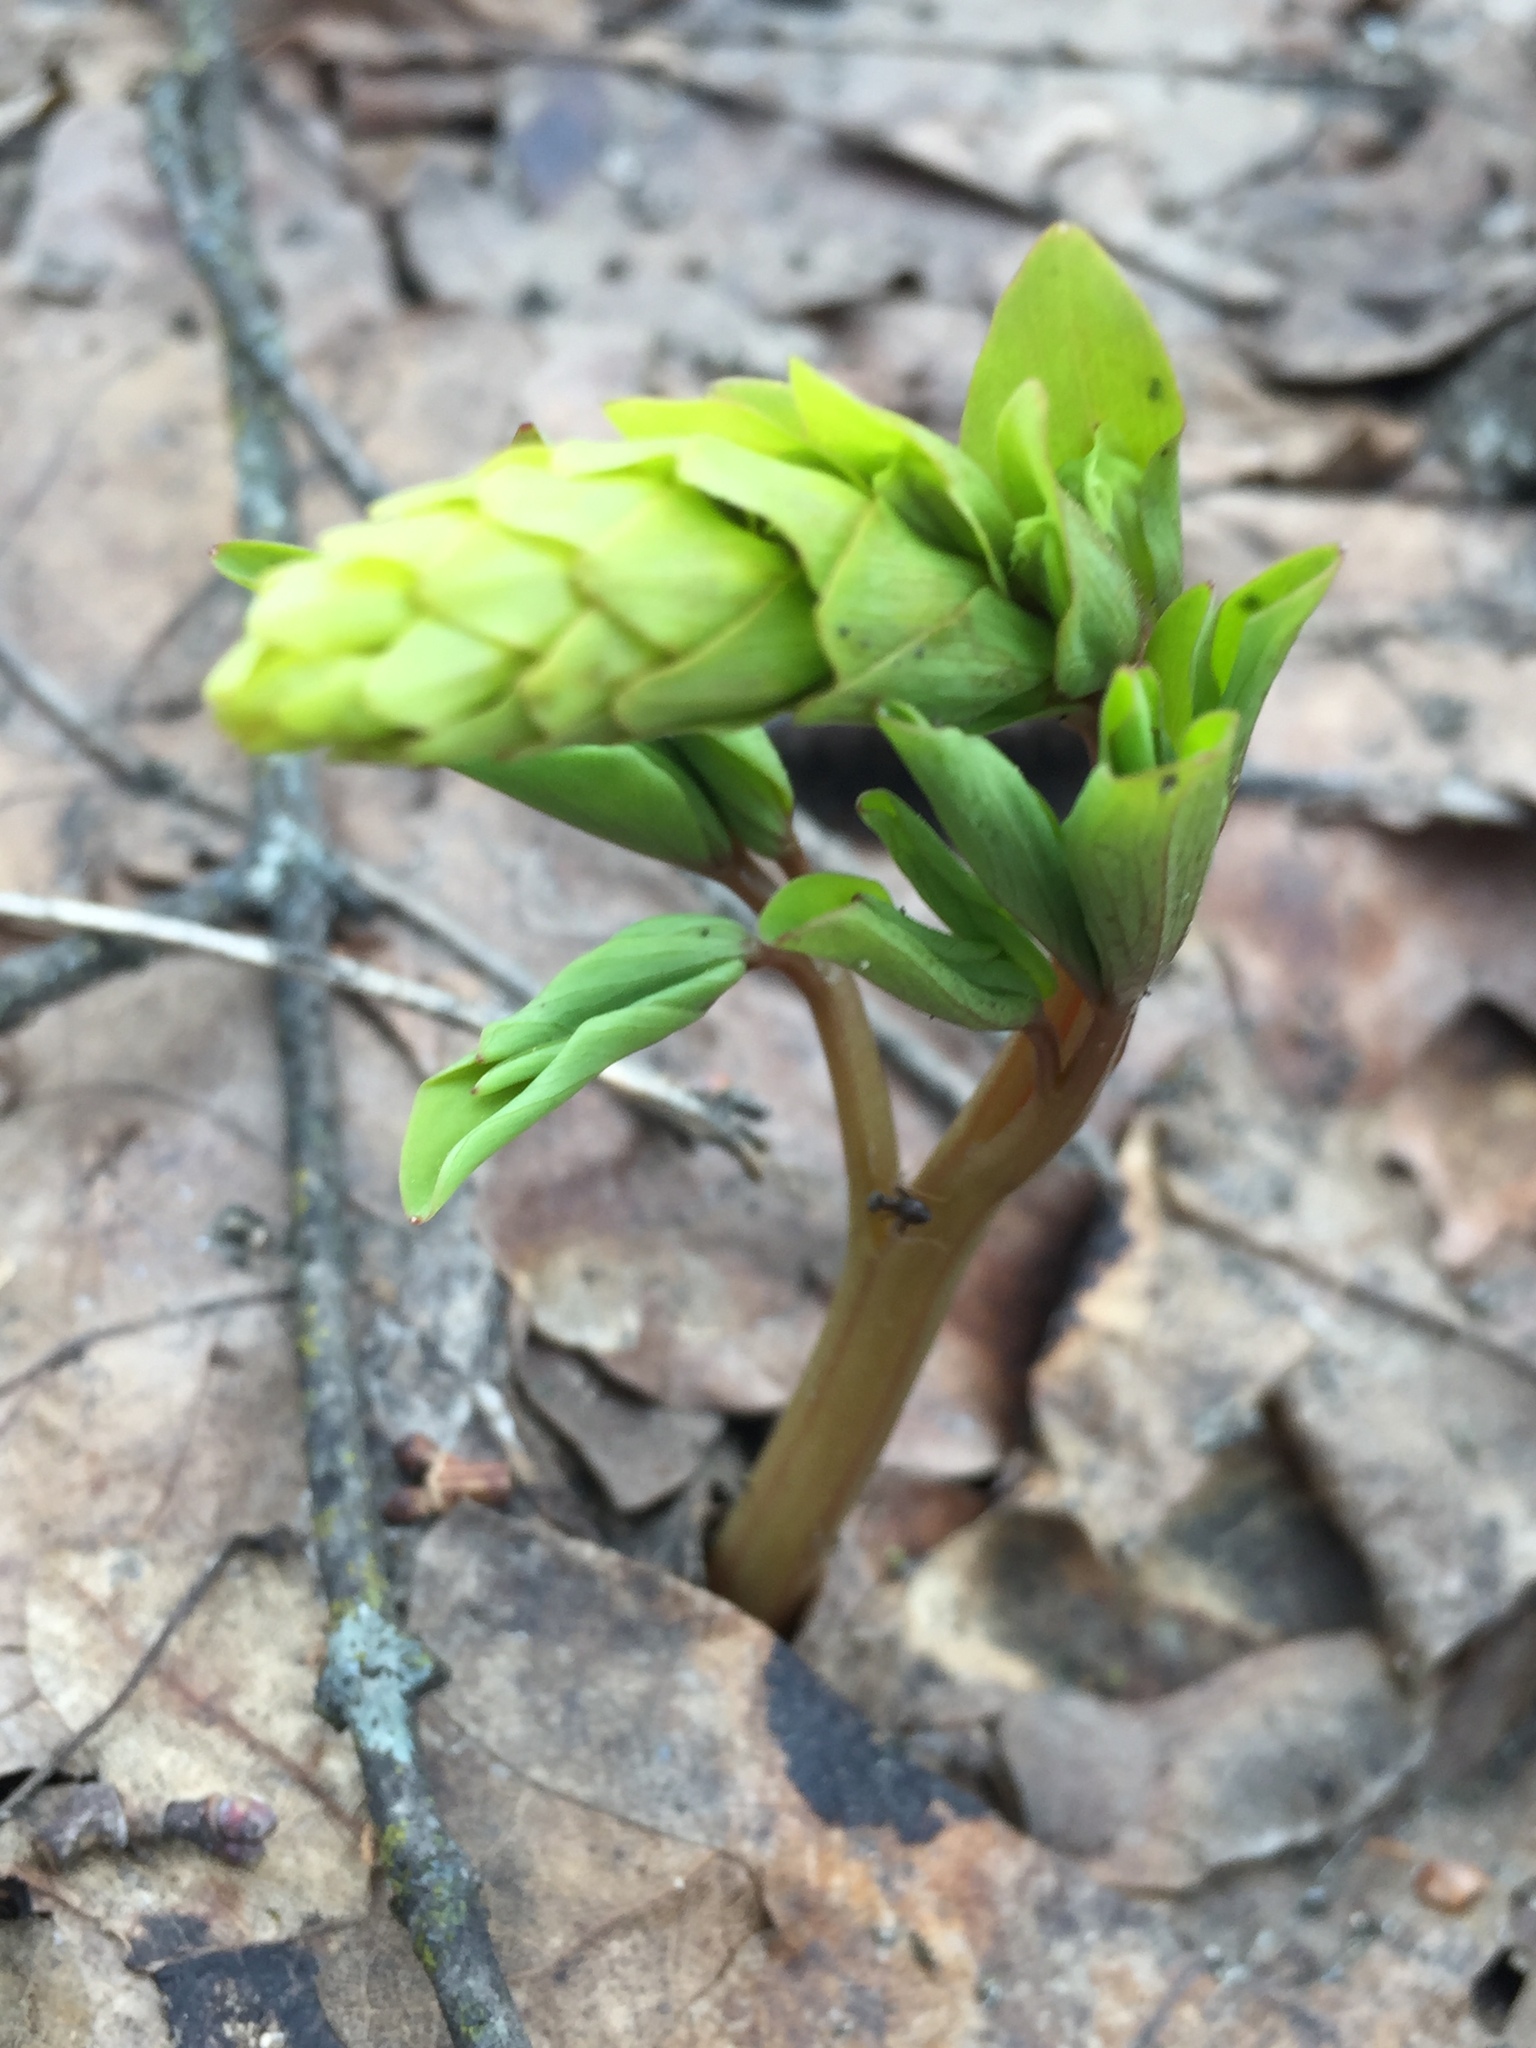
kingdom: Plantae
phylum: Tracheophyta
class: Magnoliopsida
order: Ranunculales
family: Papaveraceae
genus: Corydalis
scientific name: Corydalis cava
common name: Hollowroot
